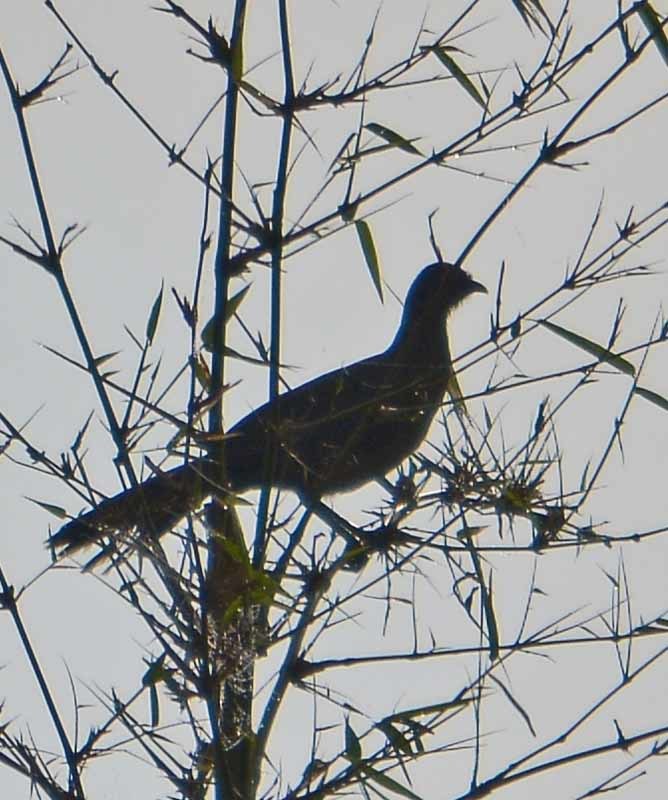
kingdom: Animalia
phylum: Chordata
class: Aves
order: Galliformes
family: Cracidae
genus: Ortalis
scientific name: Ortalis vetula
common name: Plain chachalaca
